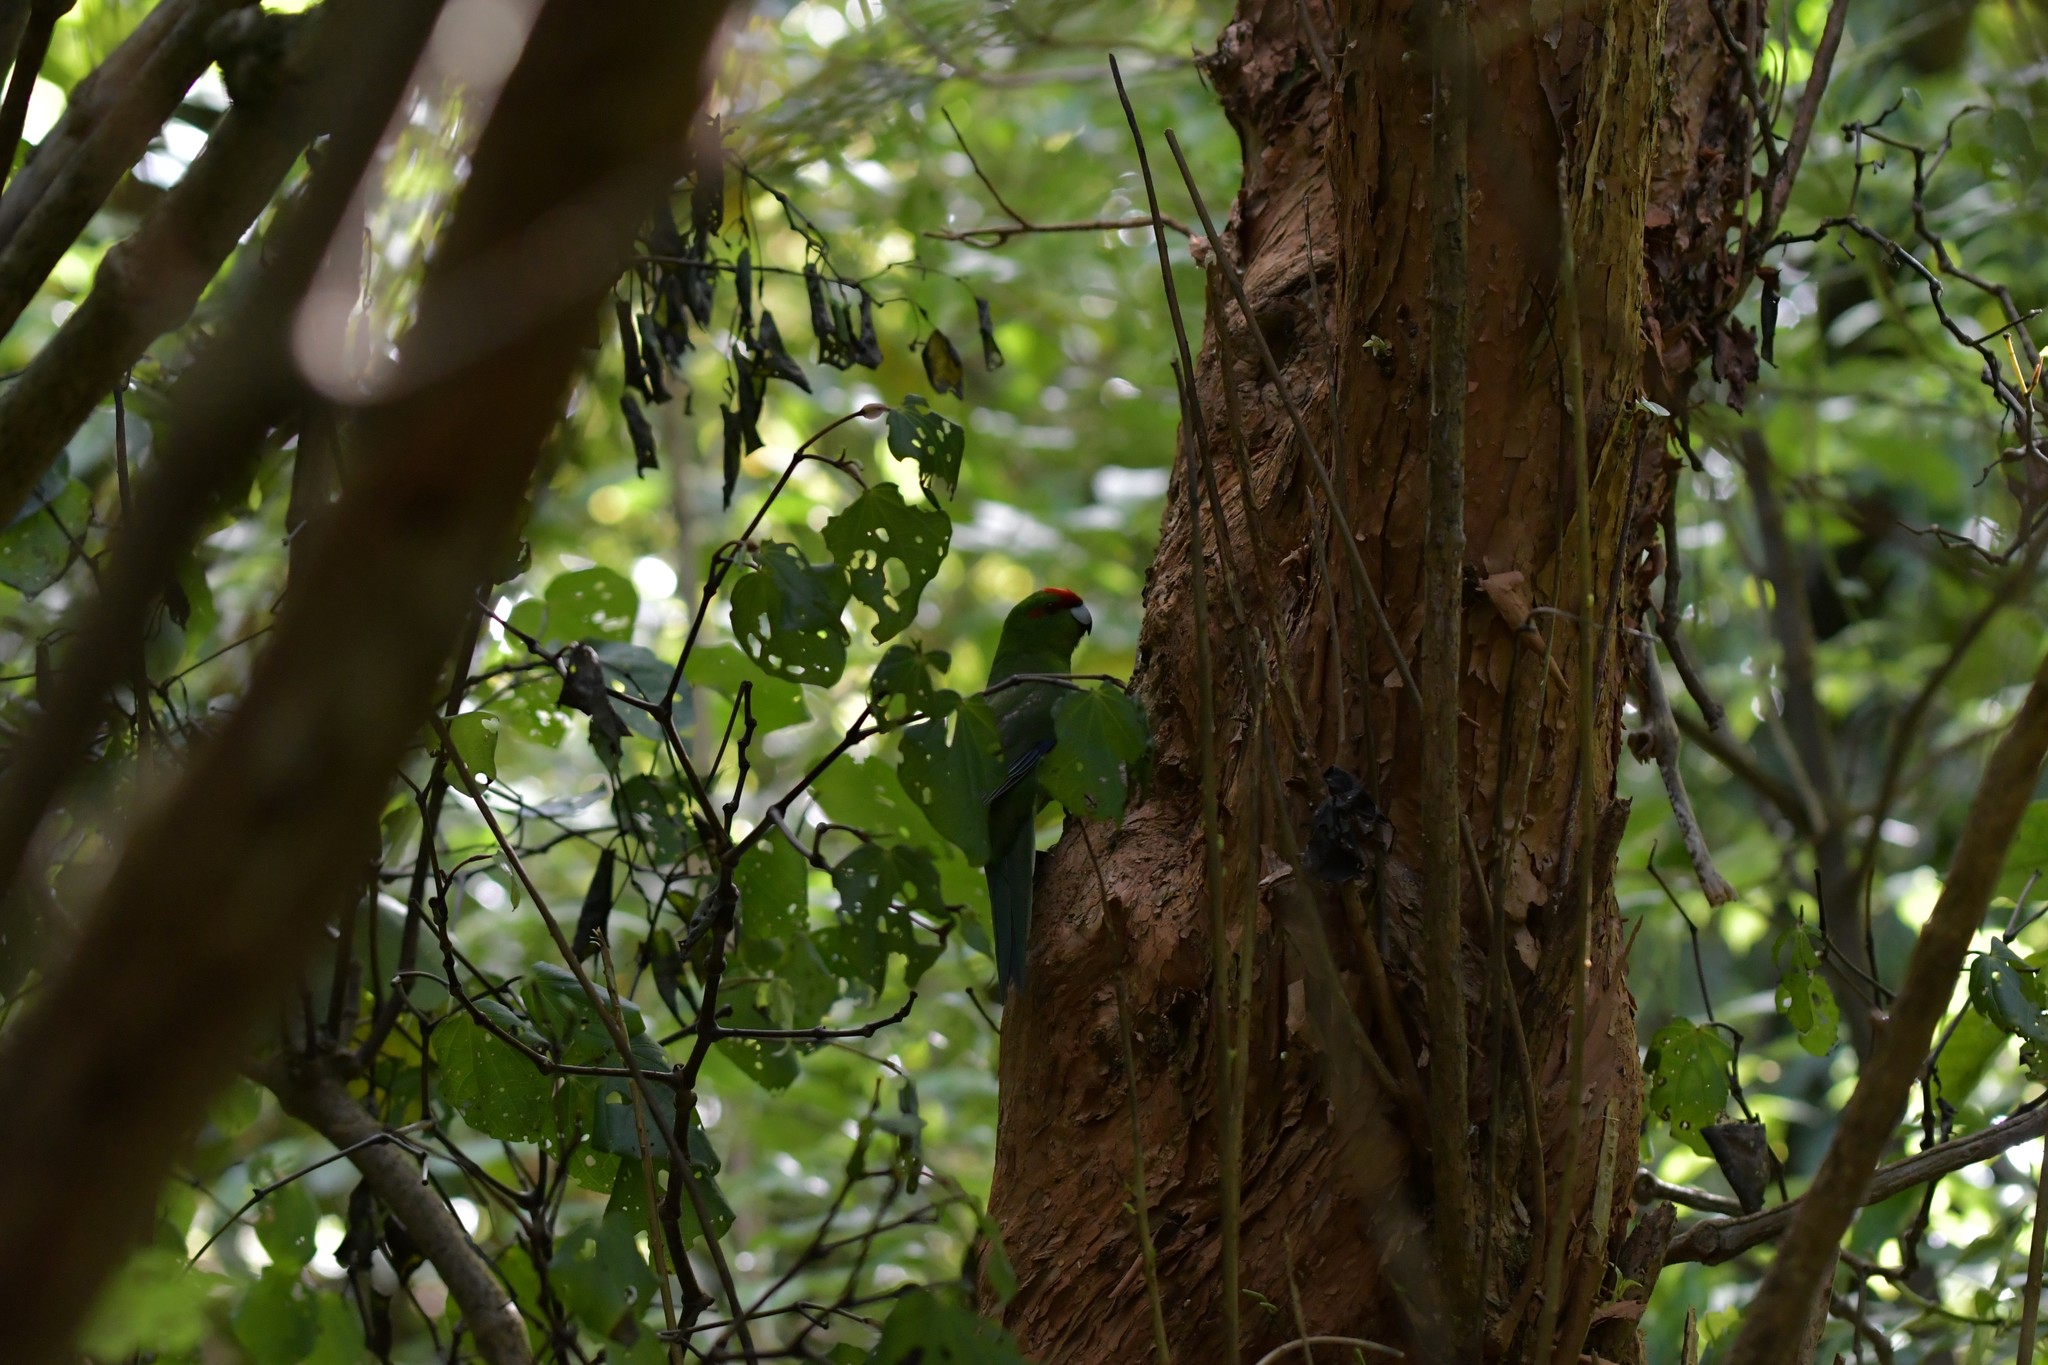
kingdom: Animalia
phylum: Chordata
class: Aves
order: Psittaciformes
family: Psittacidae
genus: Cyanoramphus
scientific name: Cyanoramphus novaezelandiae
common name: Red-fronted parakeet
